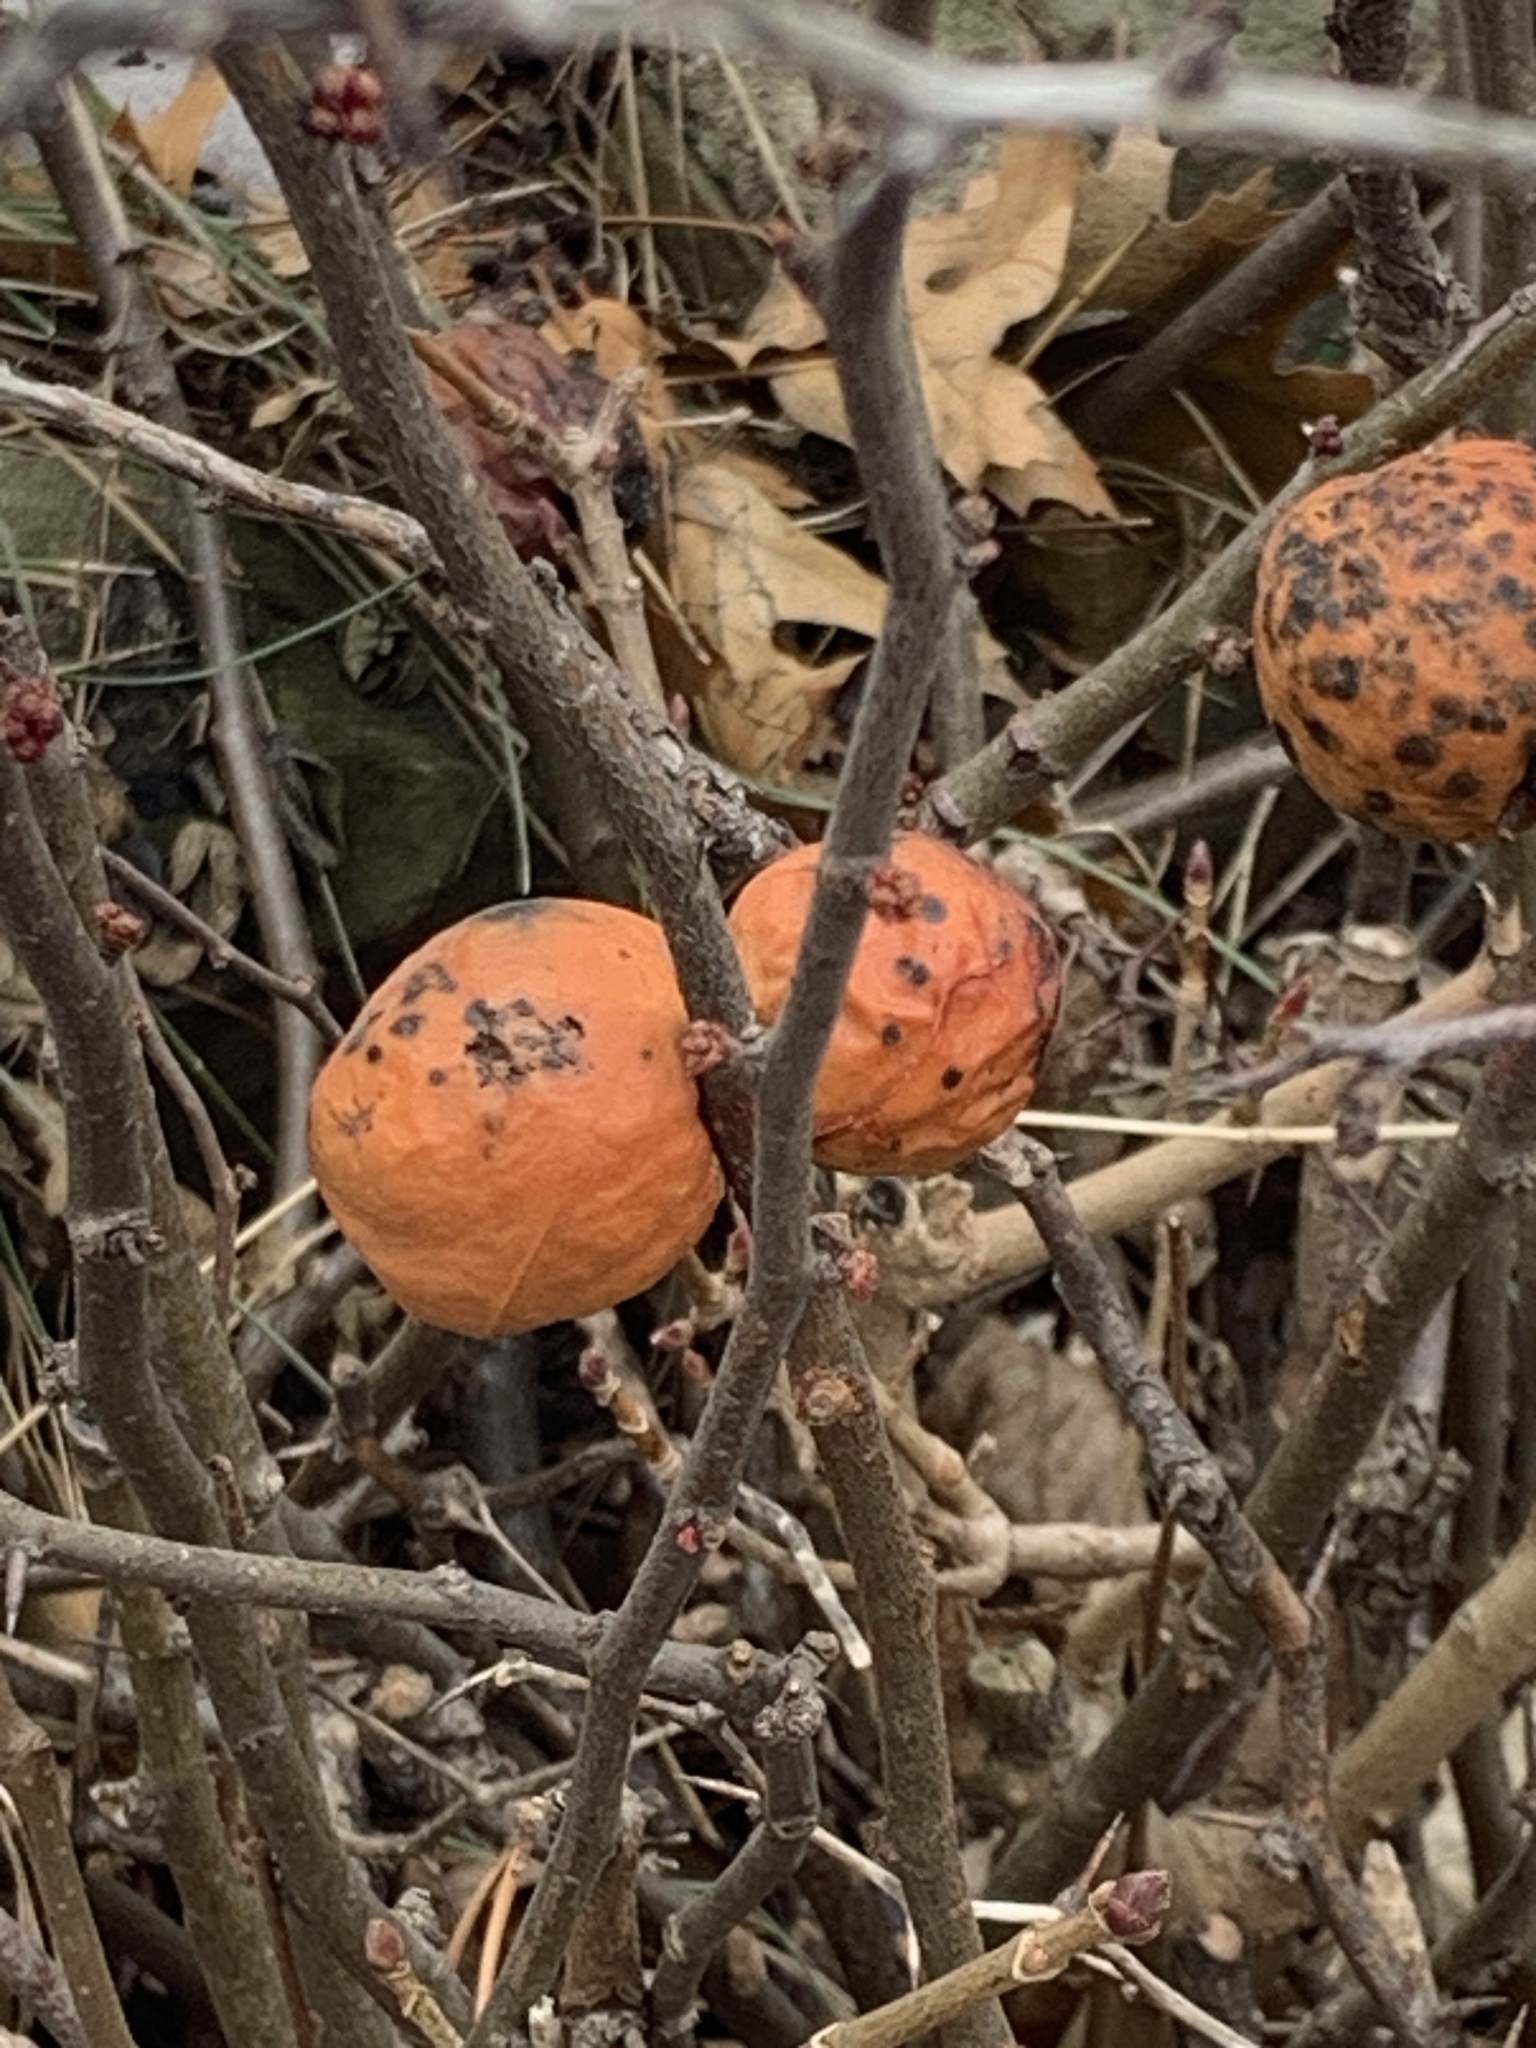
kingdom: Plantae
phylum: Tracheophyta
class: Magnoliopsida
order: Rosales
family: Rosaceae
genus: Chaenomeles
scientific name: Chaenomeles japonica
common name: Japanese quince
